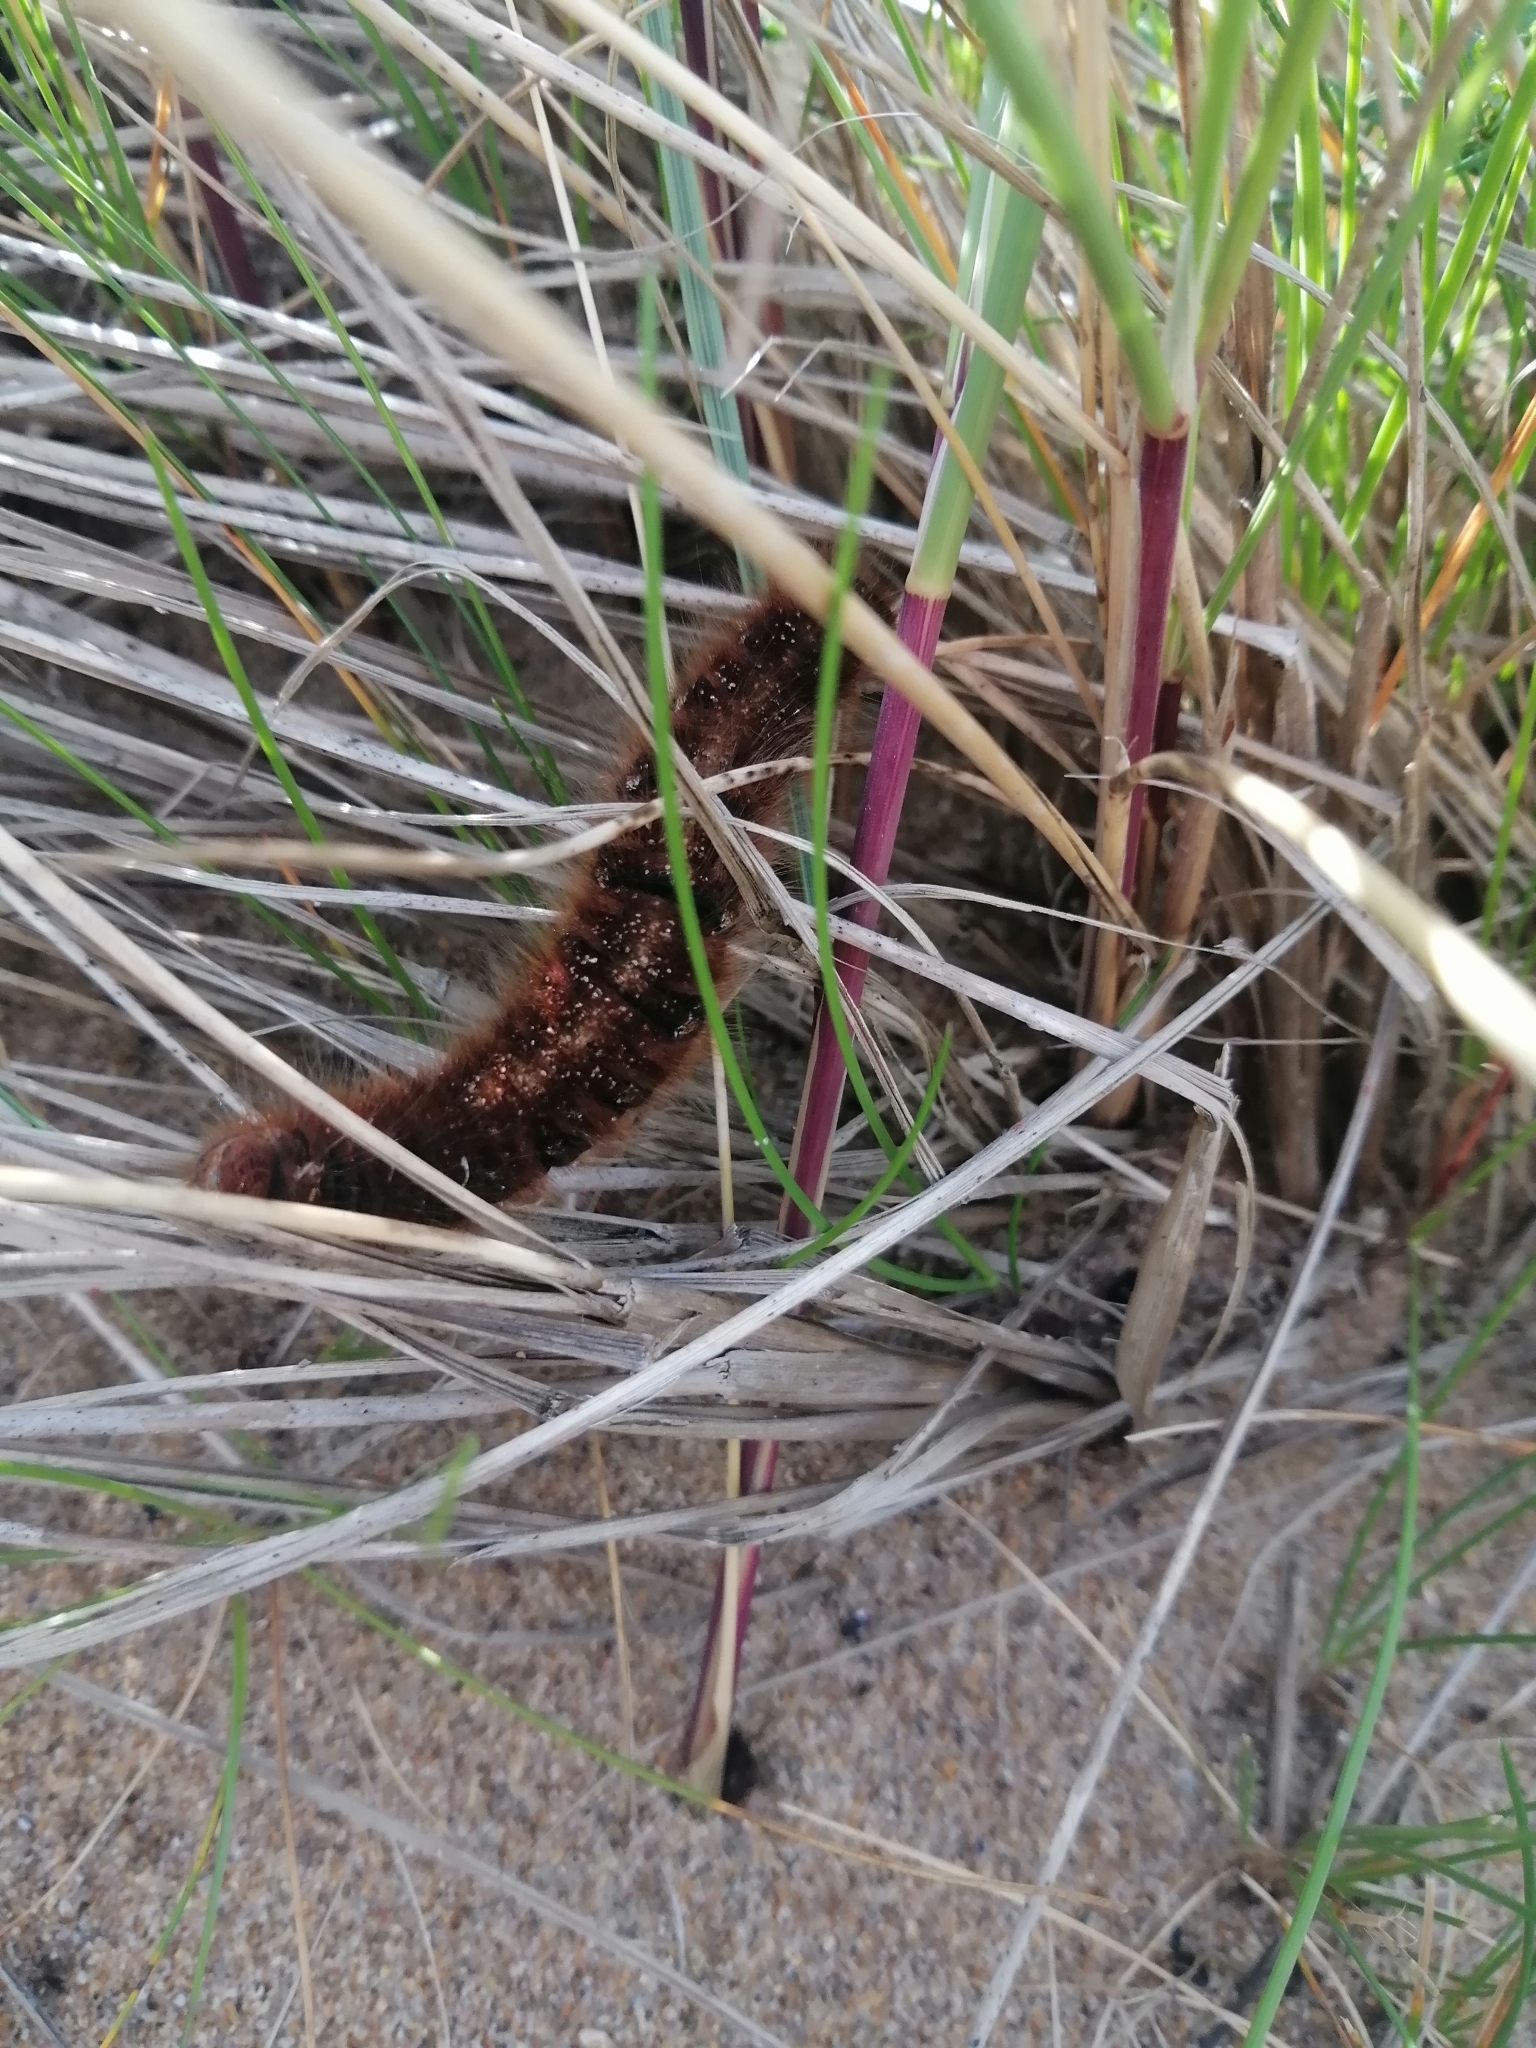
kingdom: Animalia
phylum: Arthropoda
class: Insecta
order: Lepidoptera
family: Lasiocampidae
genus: Lasiocampa
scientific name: Lasiocampa quercus
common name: Oak eggar
